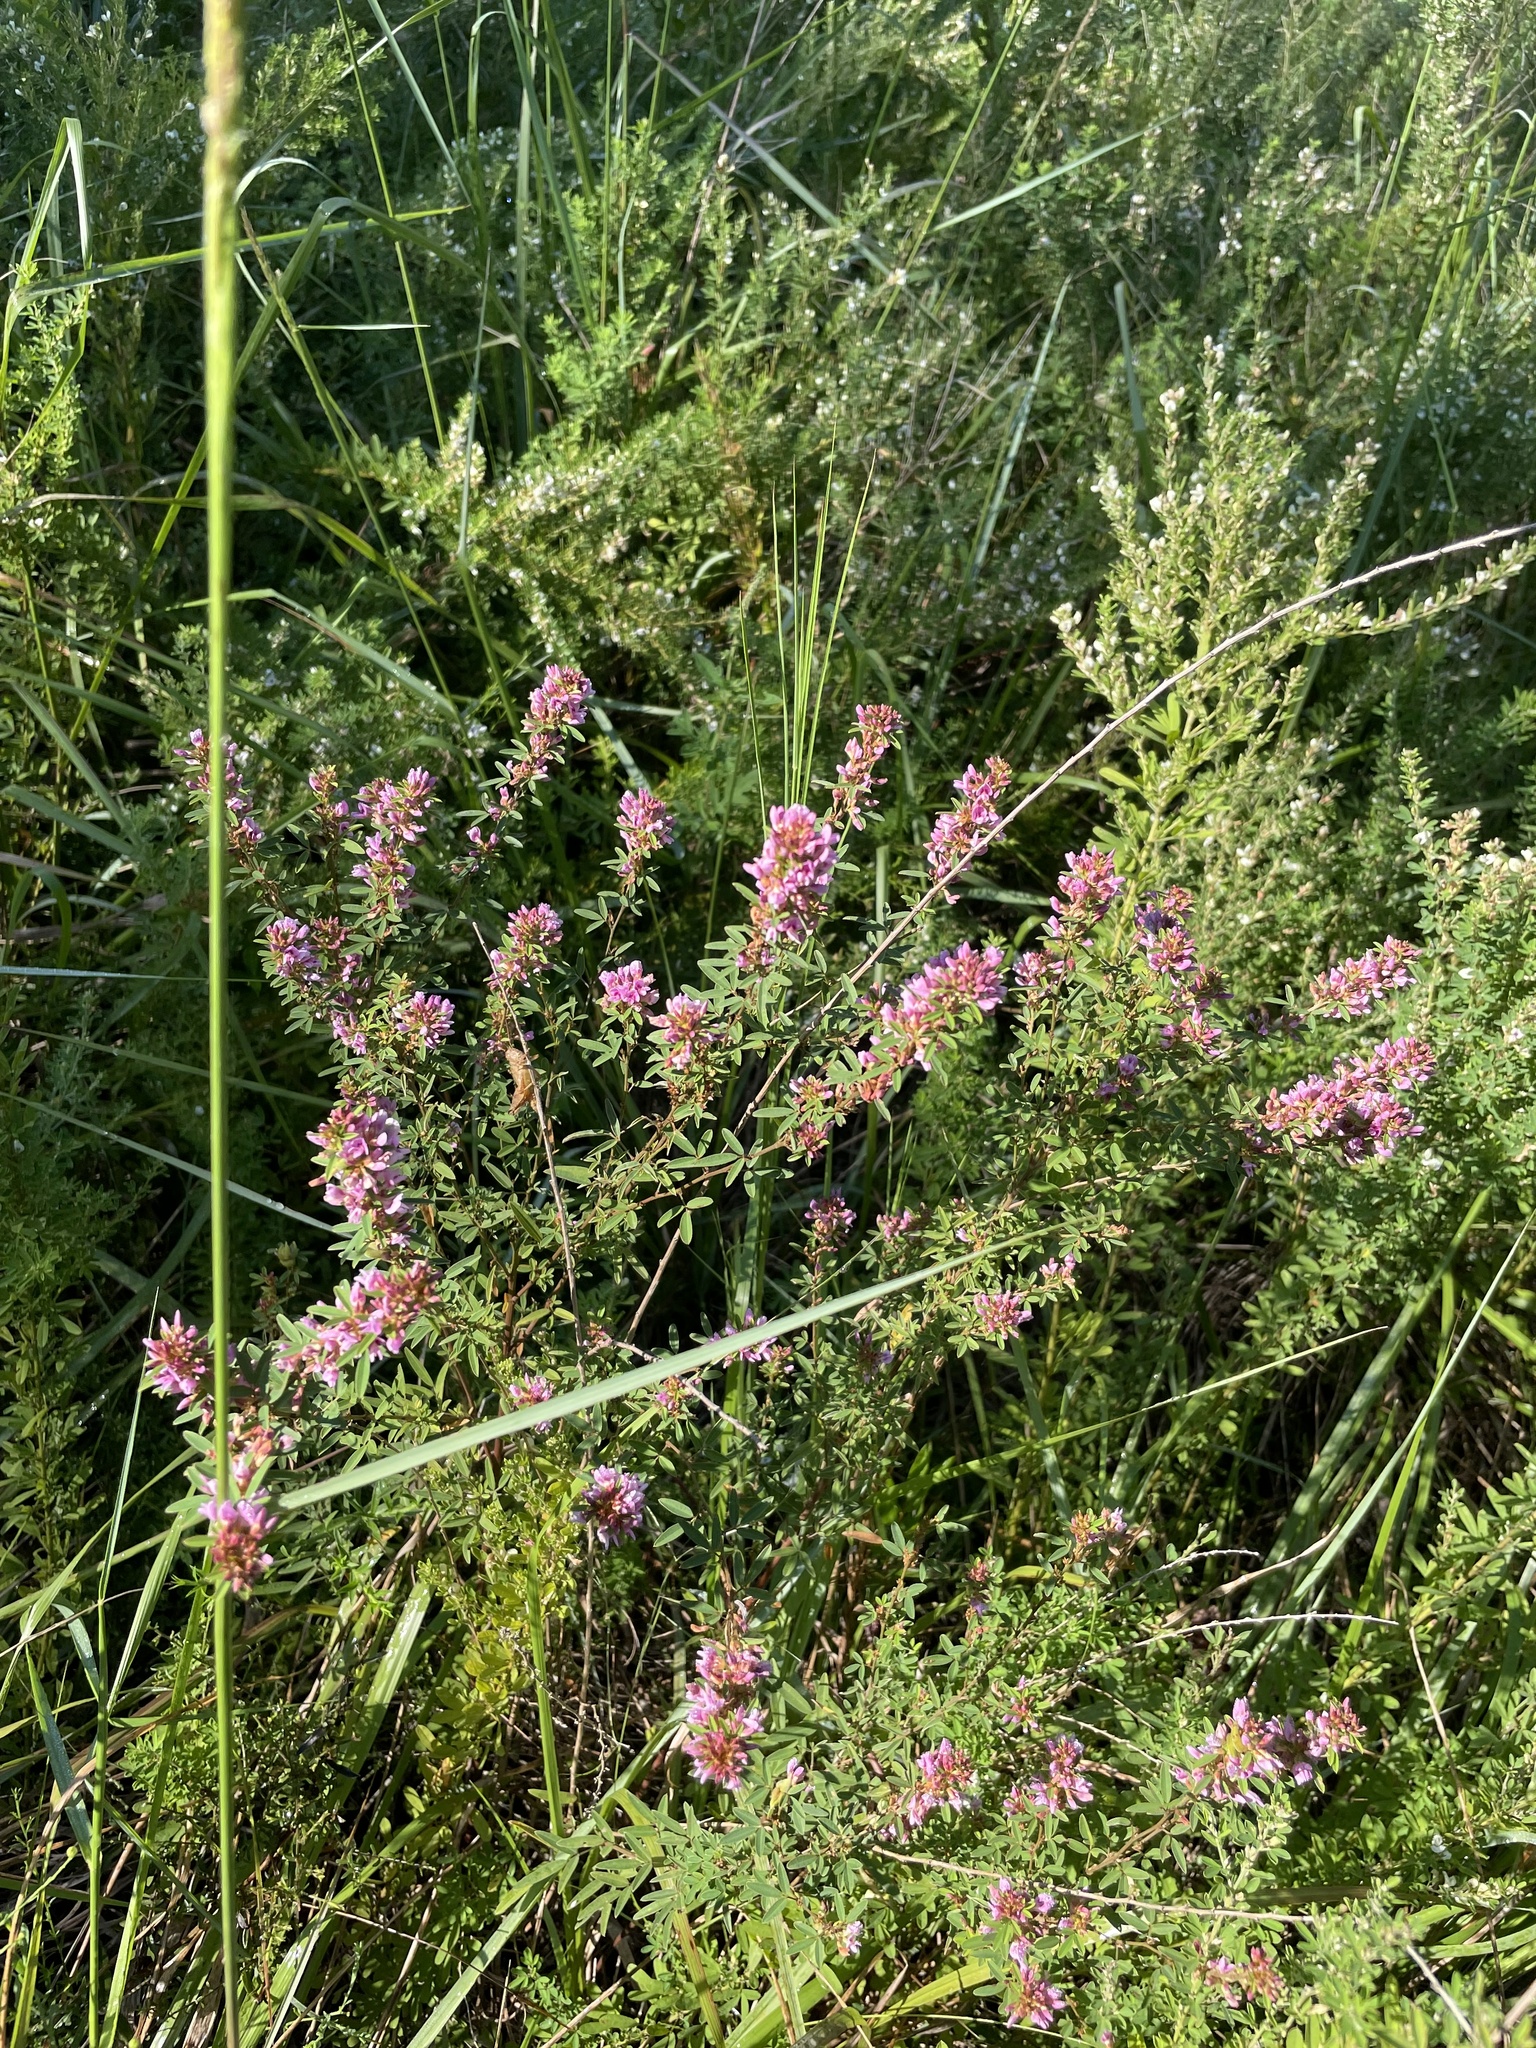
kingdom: Plantae
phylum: Tracheophyta
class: Magnoliopsida
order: Fabales
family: Fabaceae
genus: Lespedeza
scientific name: Lespedeza virginica
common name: Slender bush-clover
